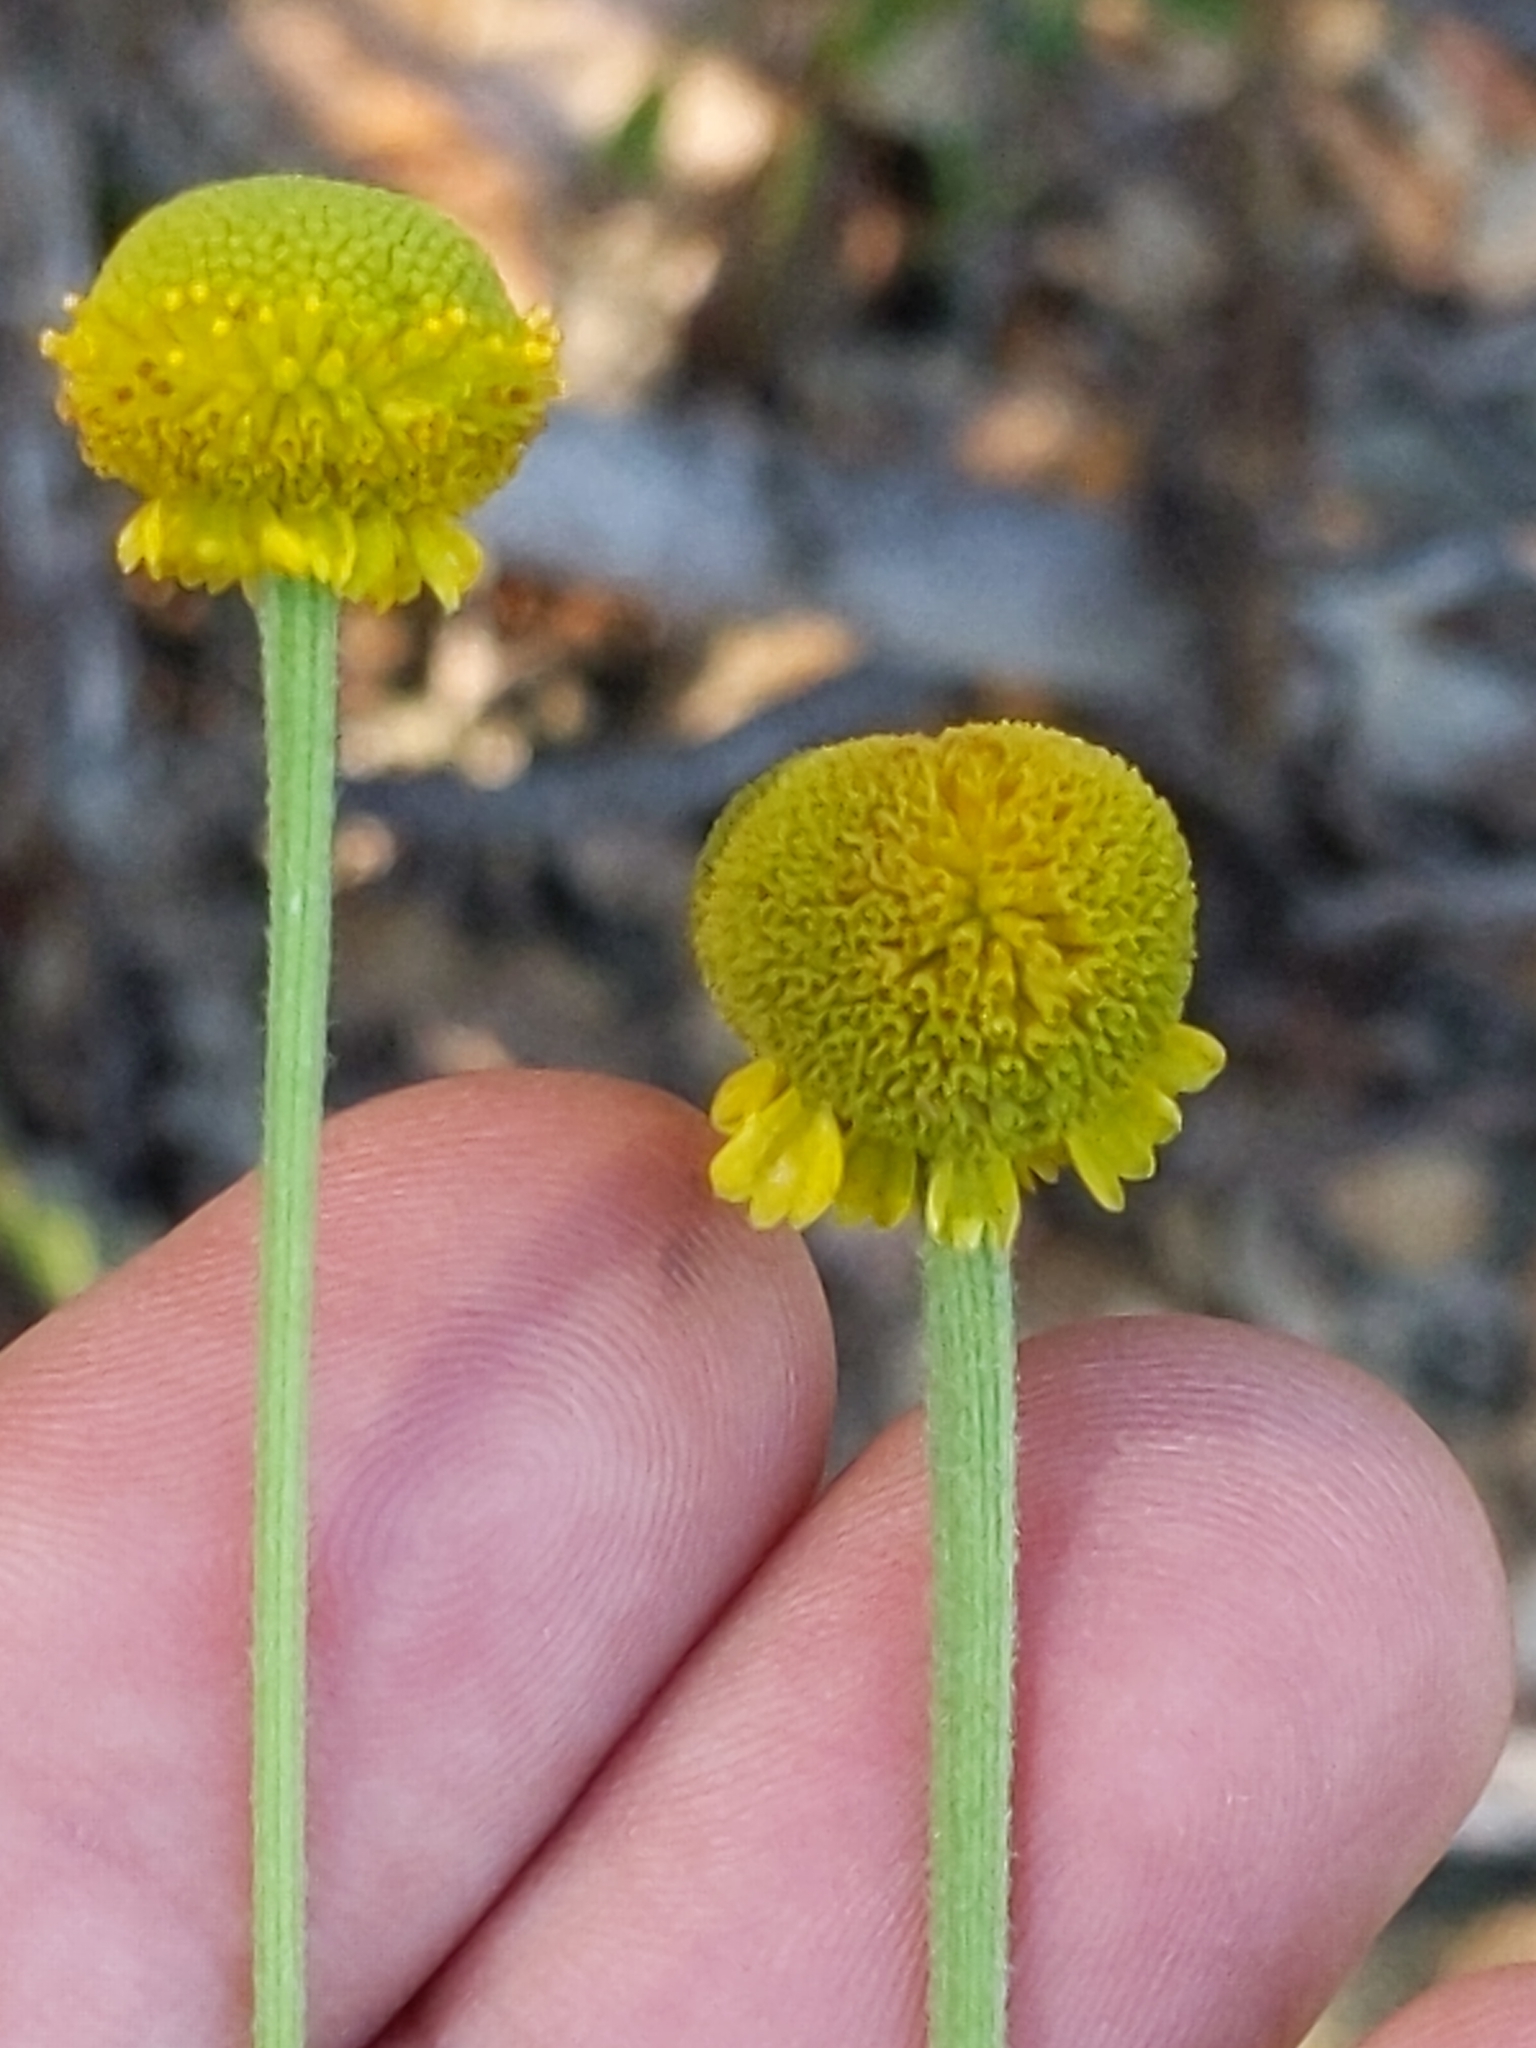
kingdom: Plantae
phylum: Tracheophyta
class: Magnoliopsida
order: Asterales
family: Asteraceae
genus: Helenium
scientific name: Helenium puberulum
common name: Sneezewort
